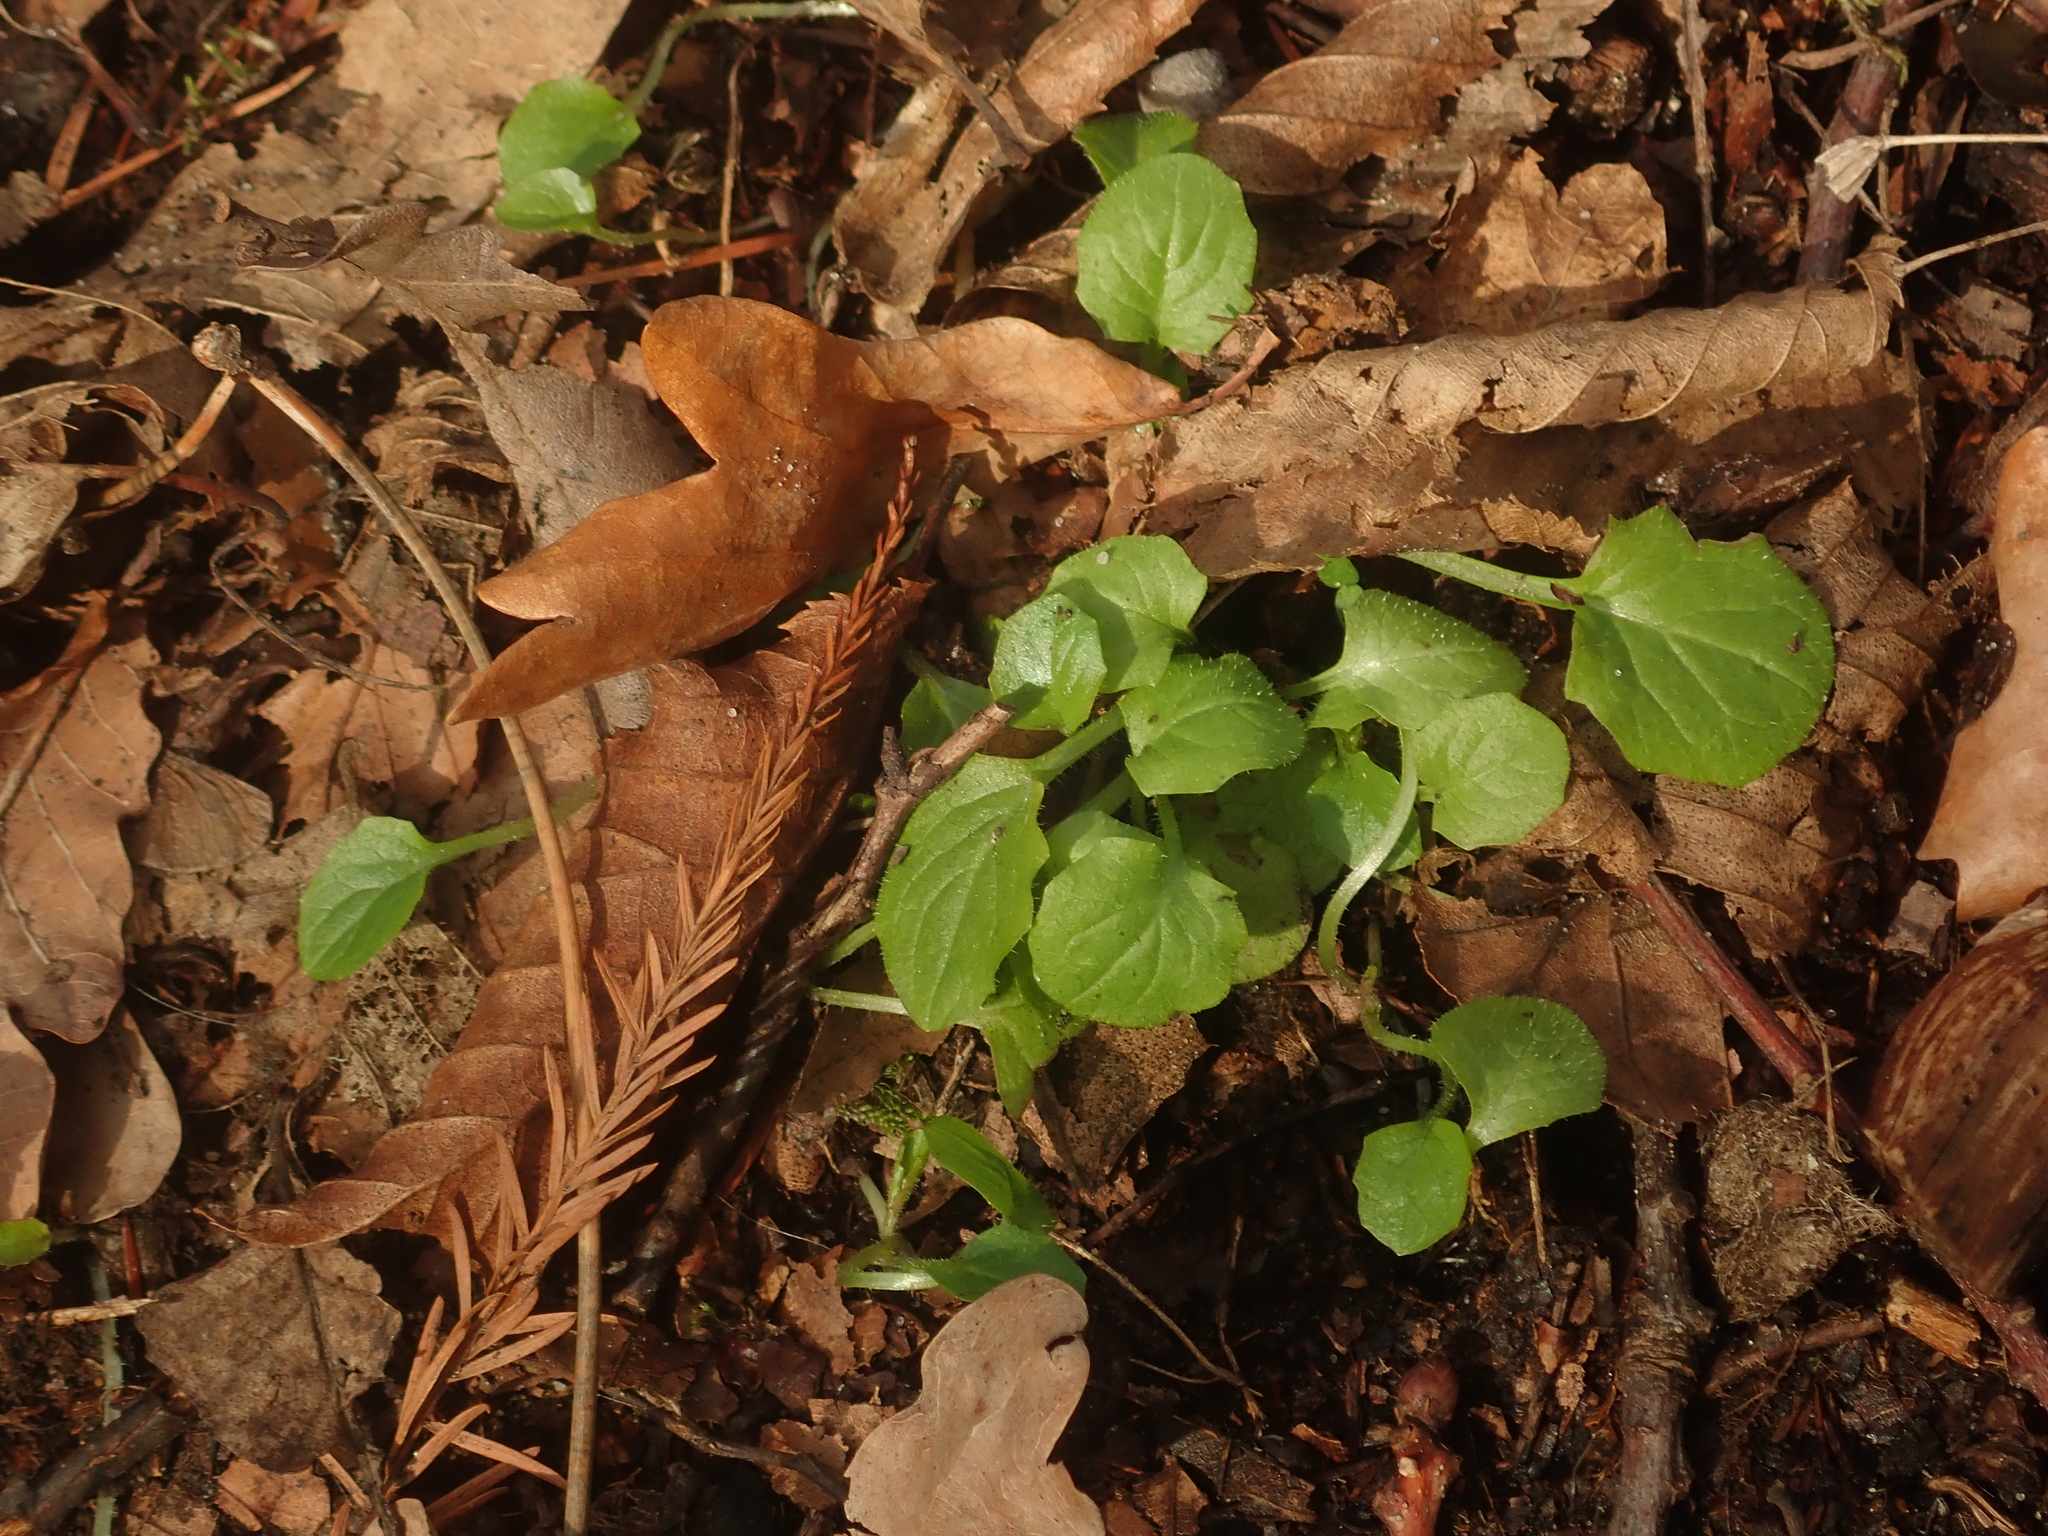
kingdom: Plantae
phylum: Tracheophyta
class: Magnoliopsida
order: Asterales
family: Asteraceae
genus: Lapsana
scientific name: Lapsana communis
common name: Nipplewort
